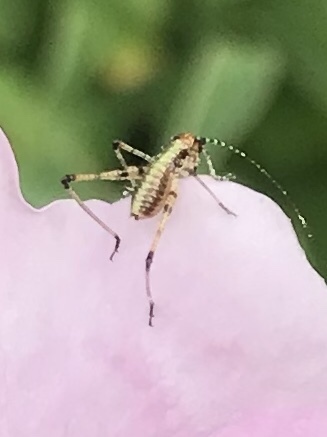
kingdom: Animalia
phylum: Arthropoda
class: Insecta
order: Orthoptera
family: Tettigoniidae
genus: Phaneroptera
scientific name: Phaneroptera nana
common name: Southern sickle bush-cricket
